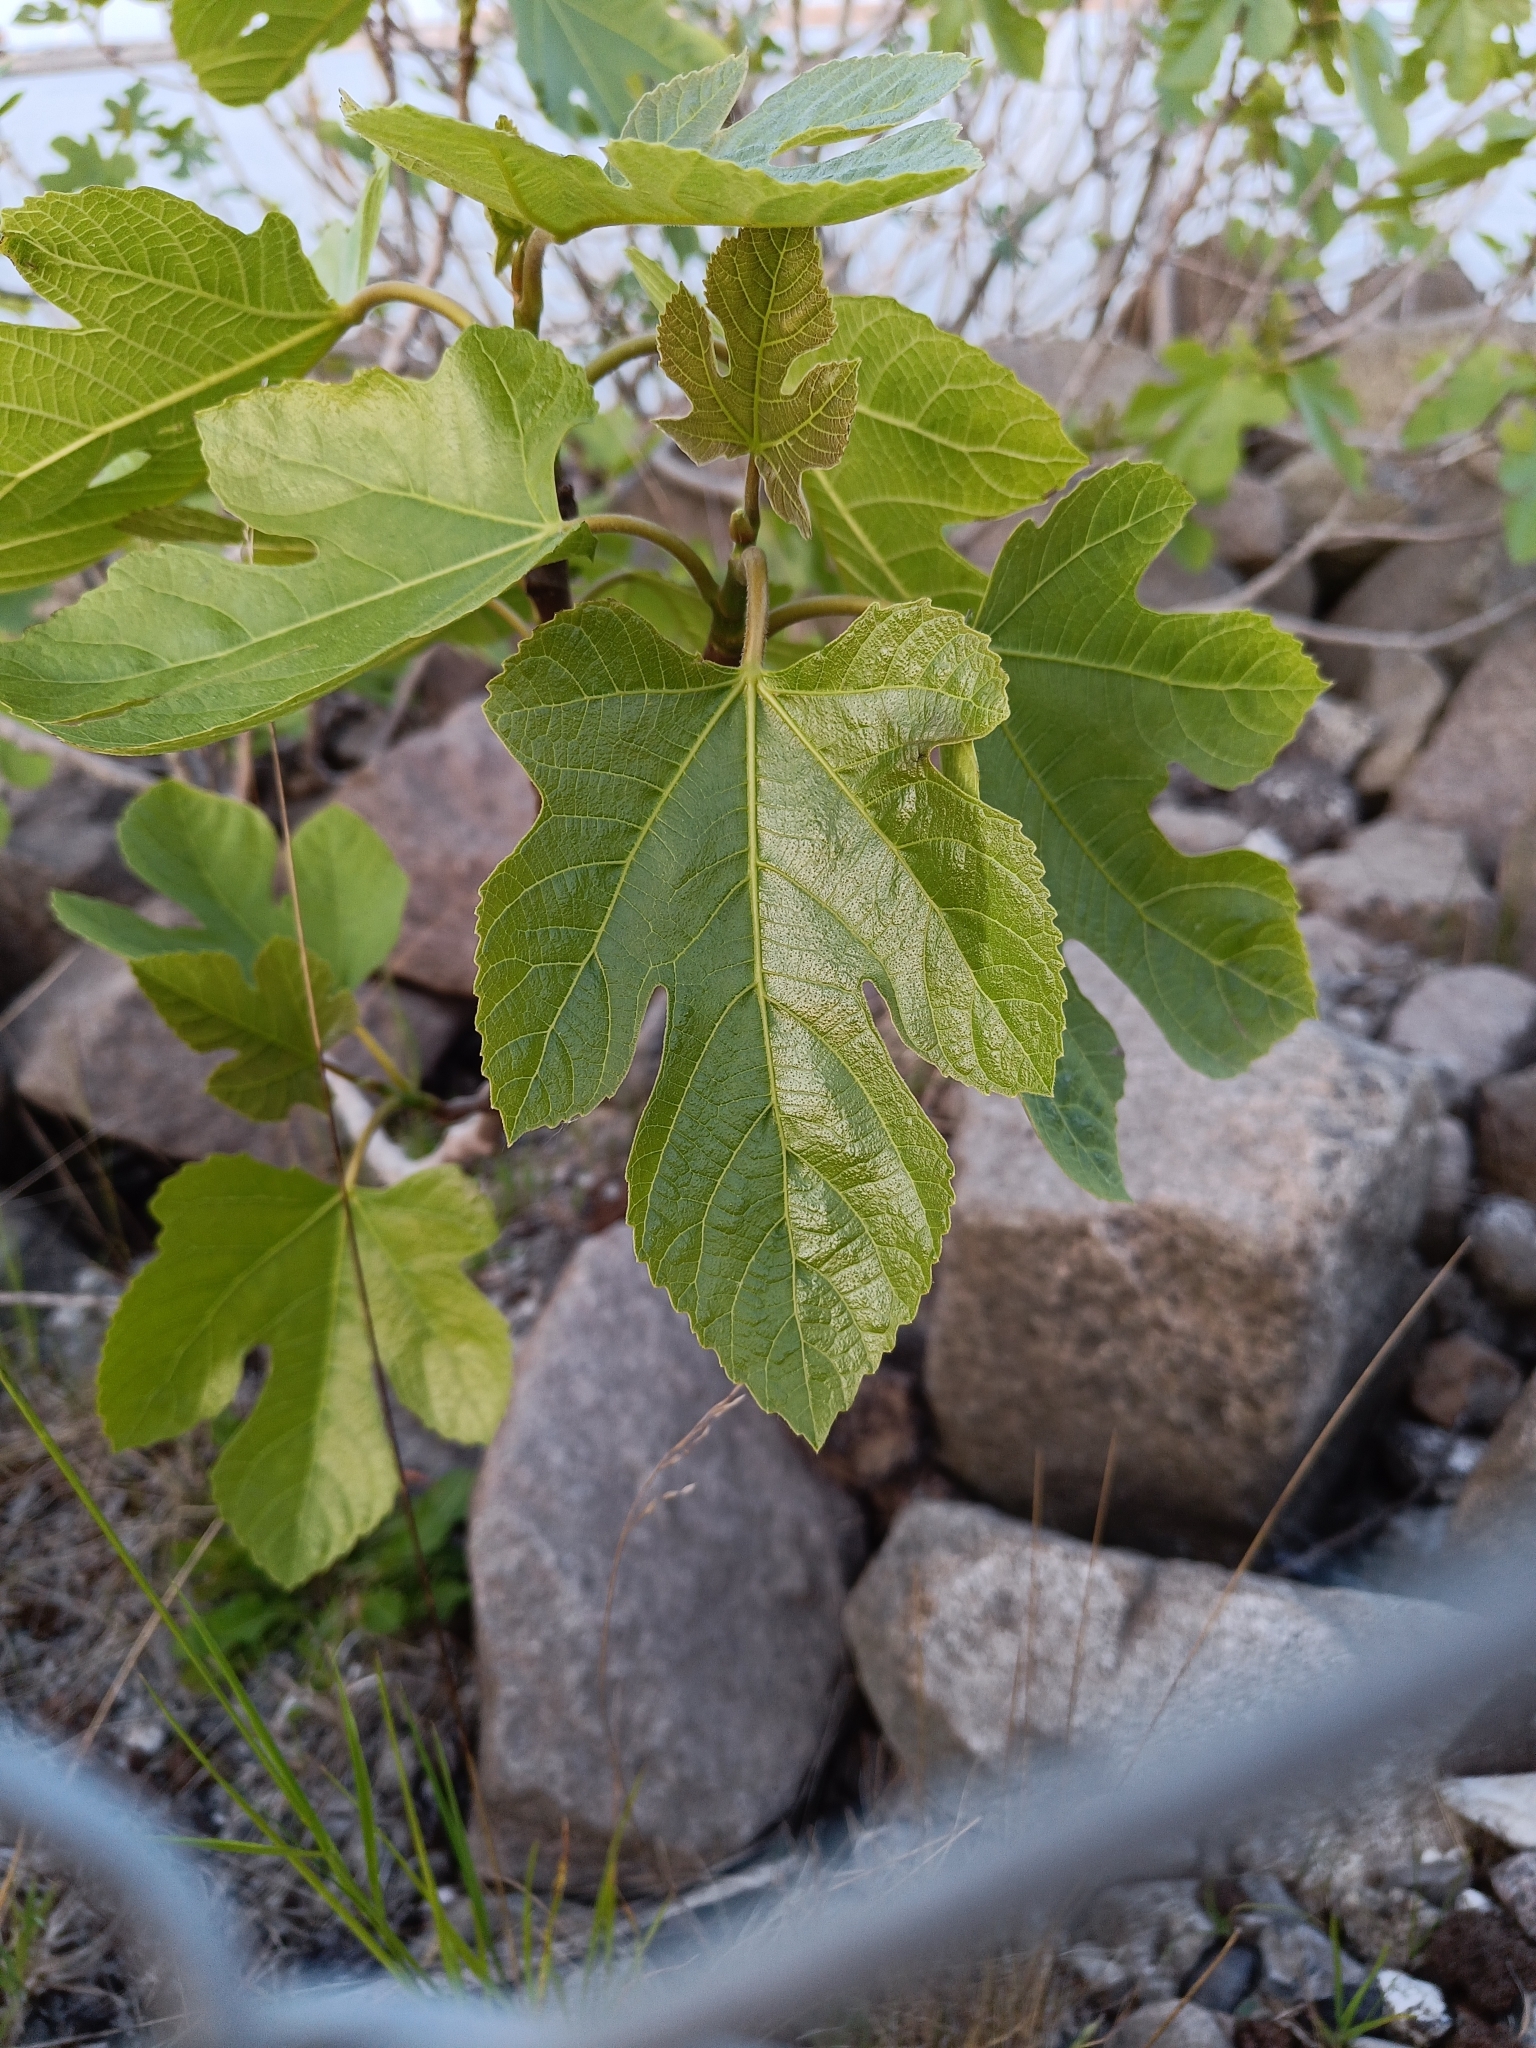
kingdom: Plantae
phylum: Tracheophyta
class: Magnoliopsida
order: Rosales
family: Moraceae
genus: Ficus
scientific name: Ficus carica
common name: Fig
